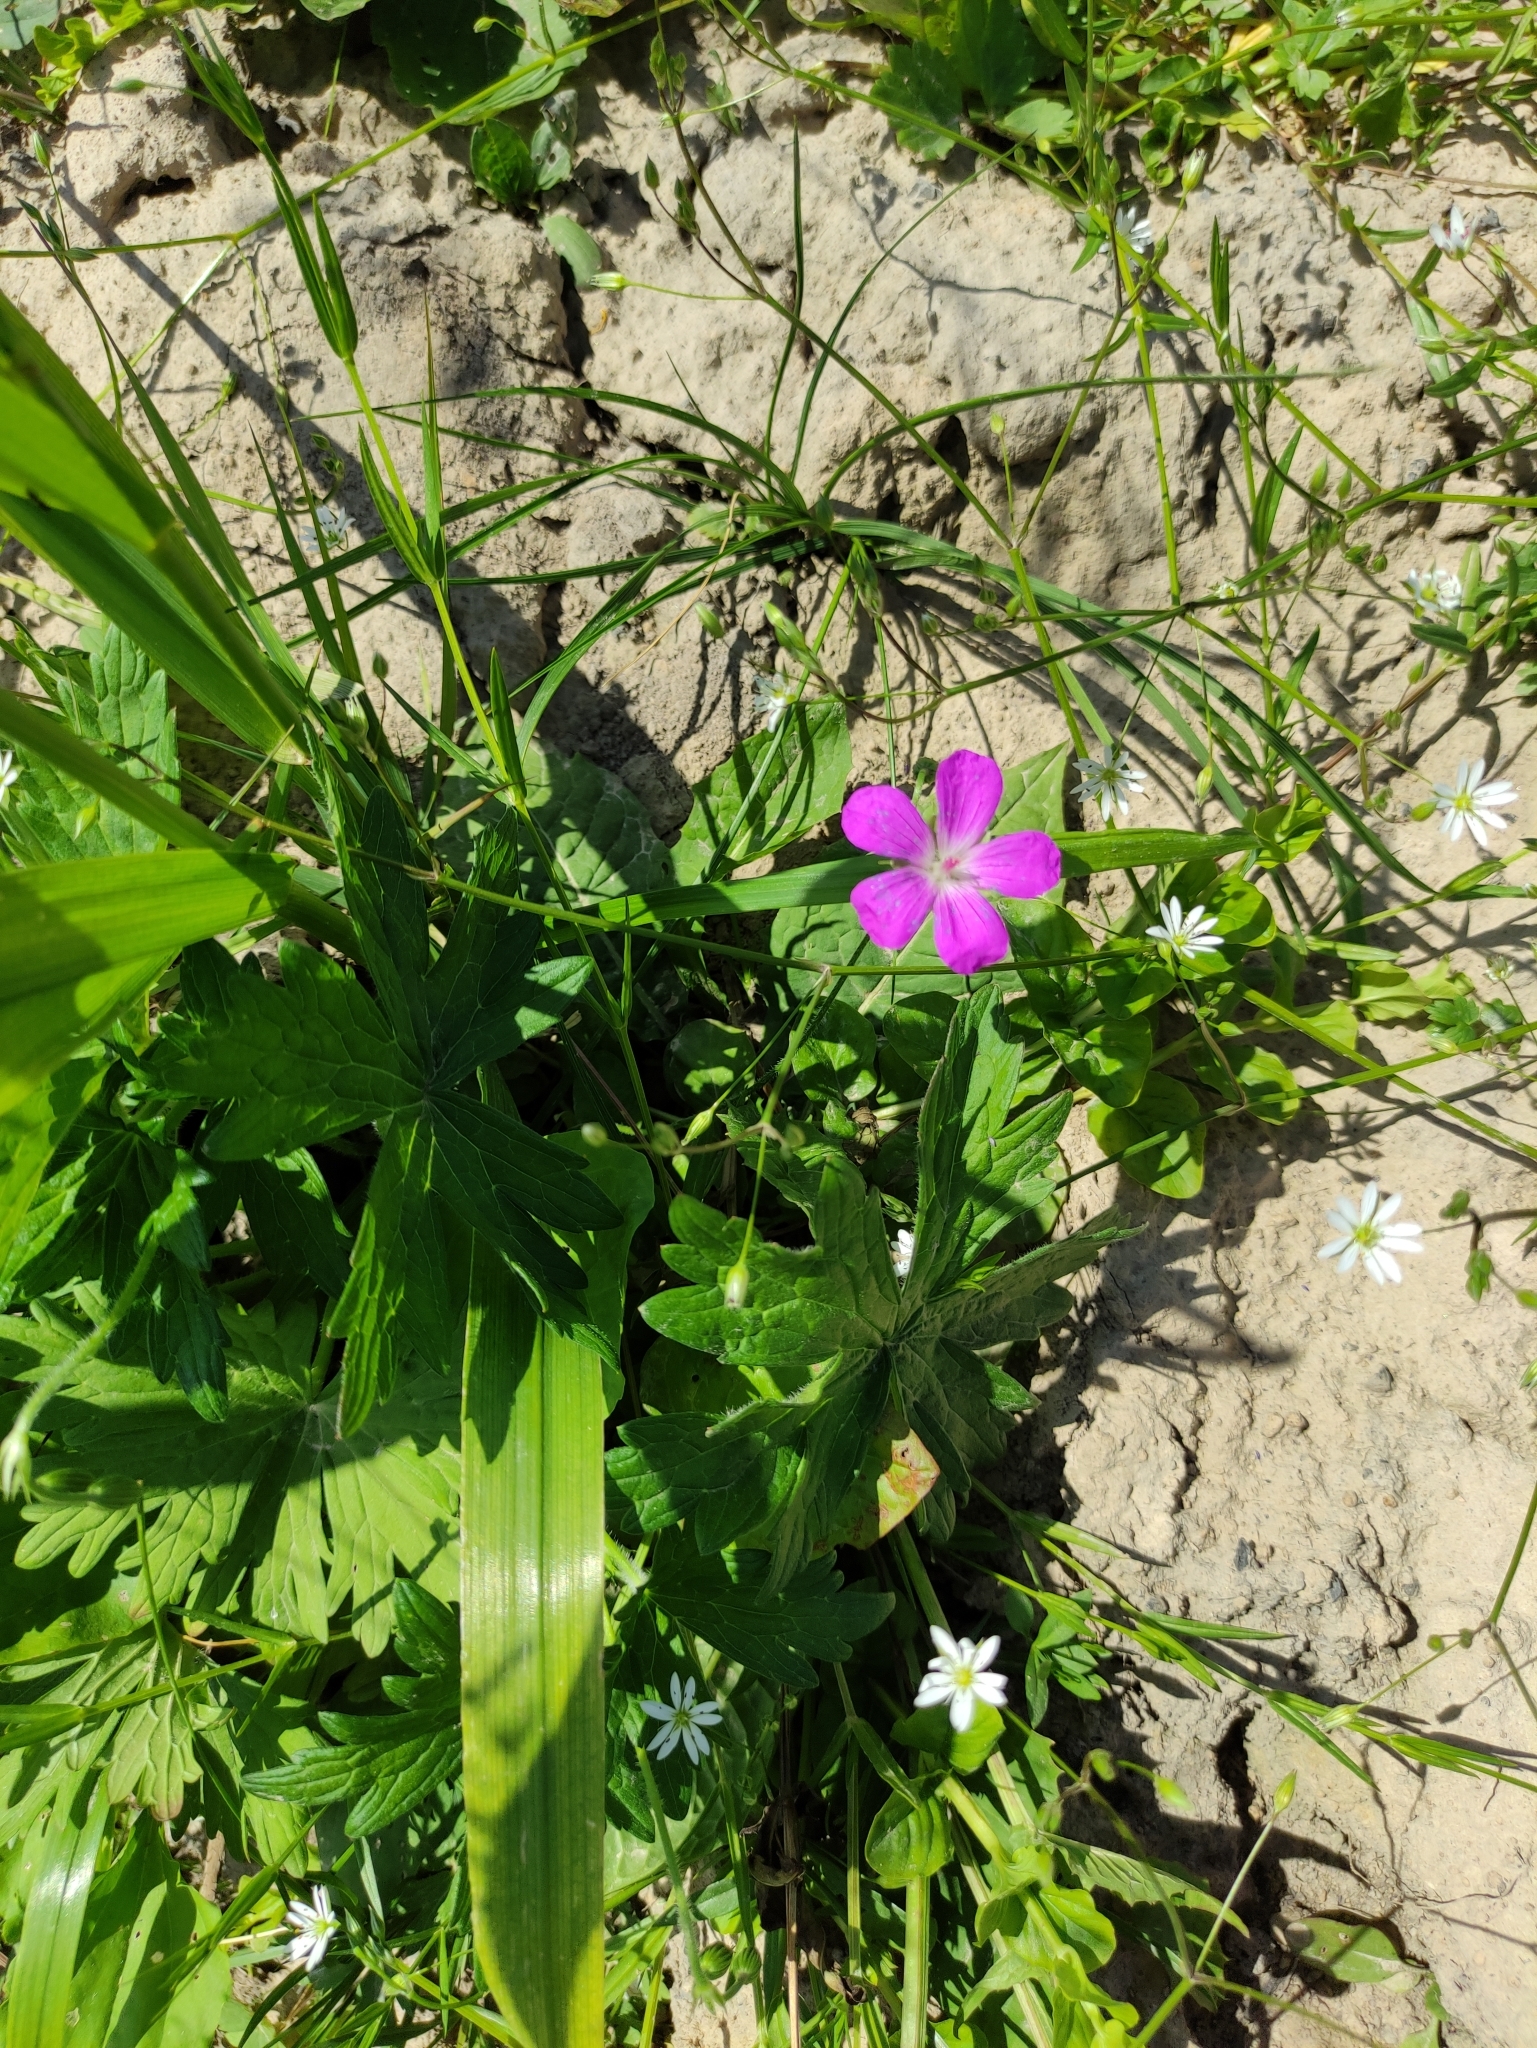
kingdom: Plantae
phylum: Tracheophyta
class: Magnoliopsida
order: Geraniales
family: Geraniaceae
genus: Geranium
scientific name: Geranium palustre
